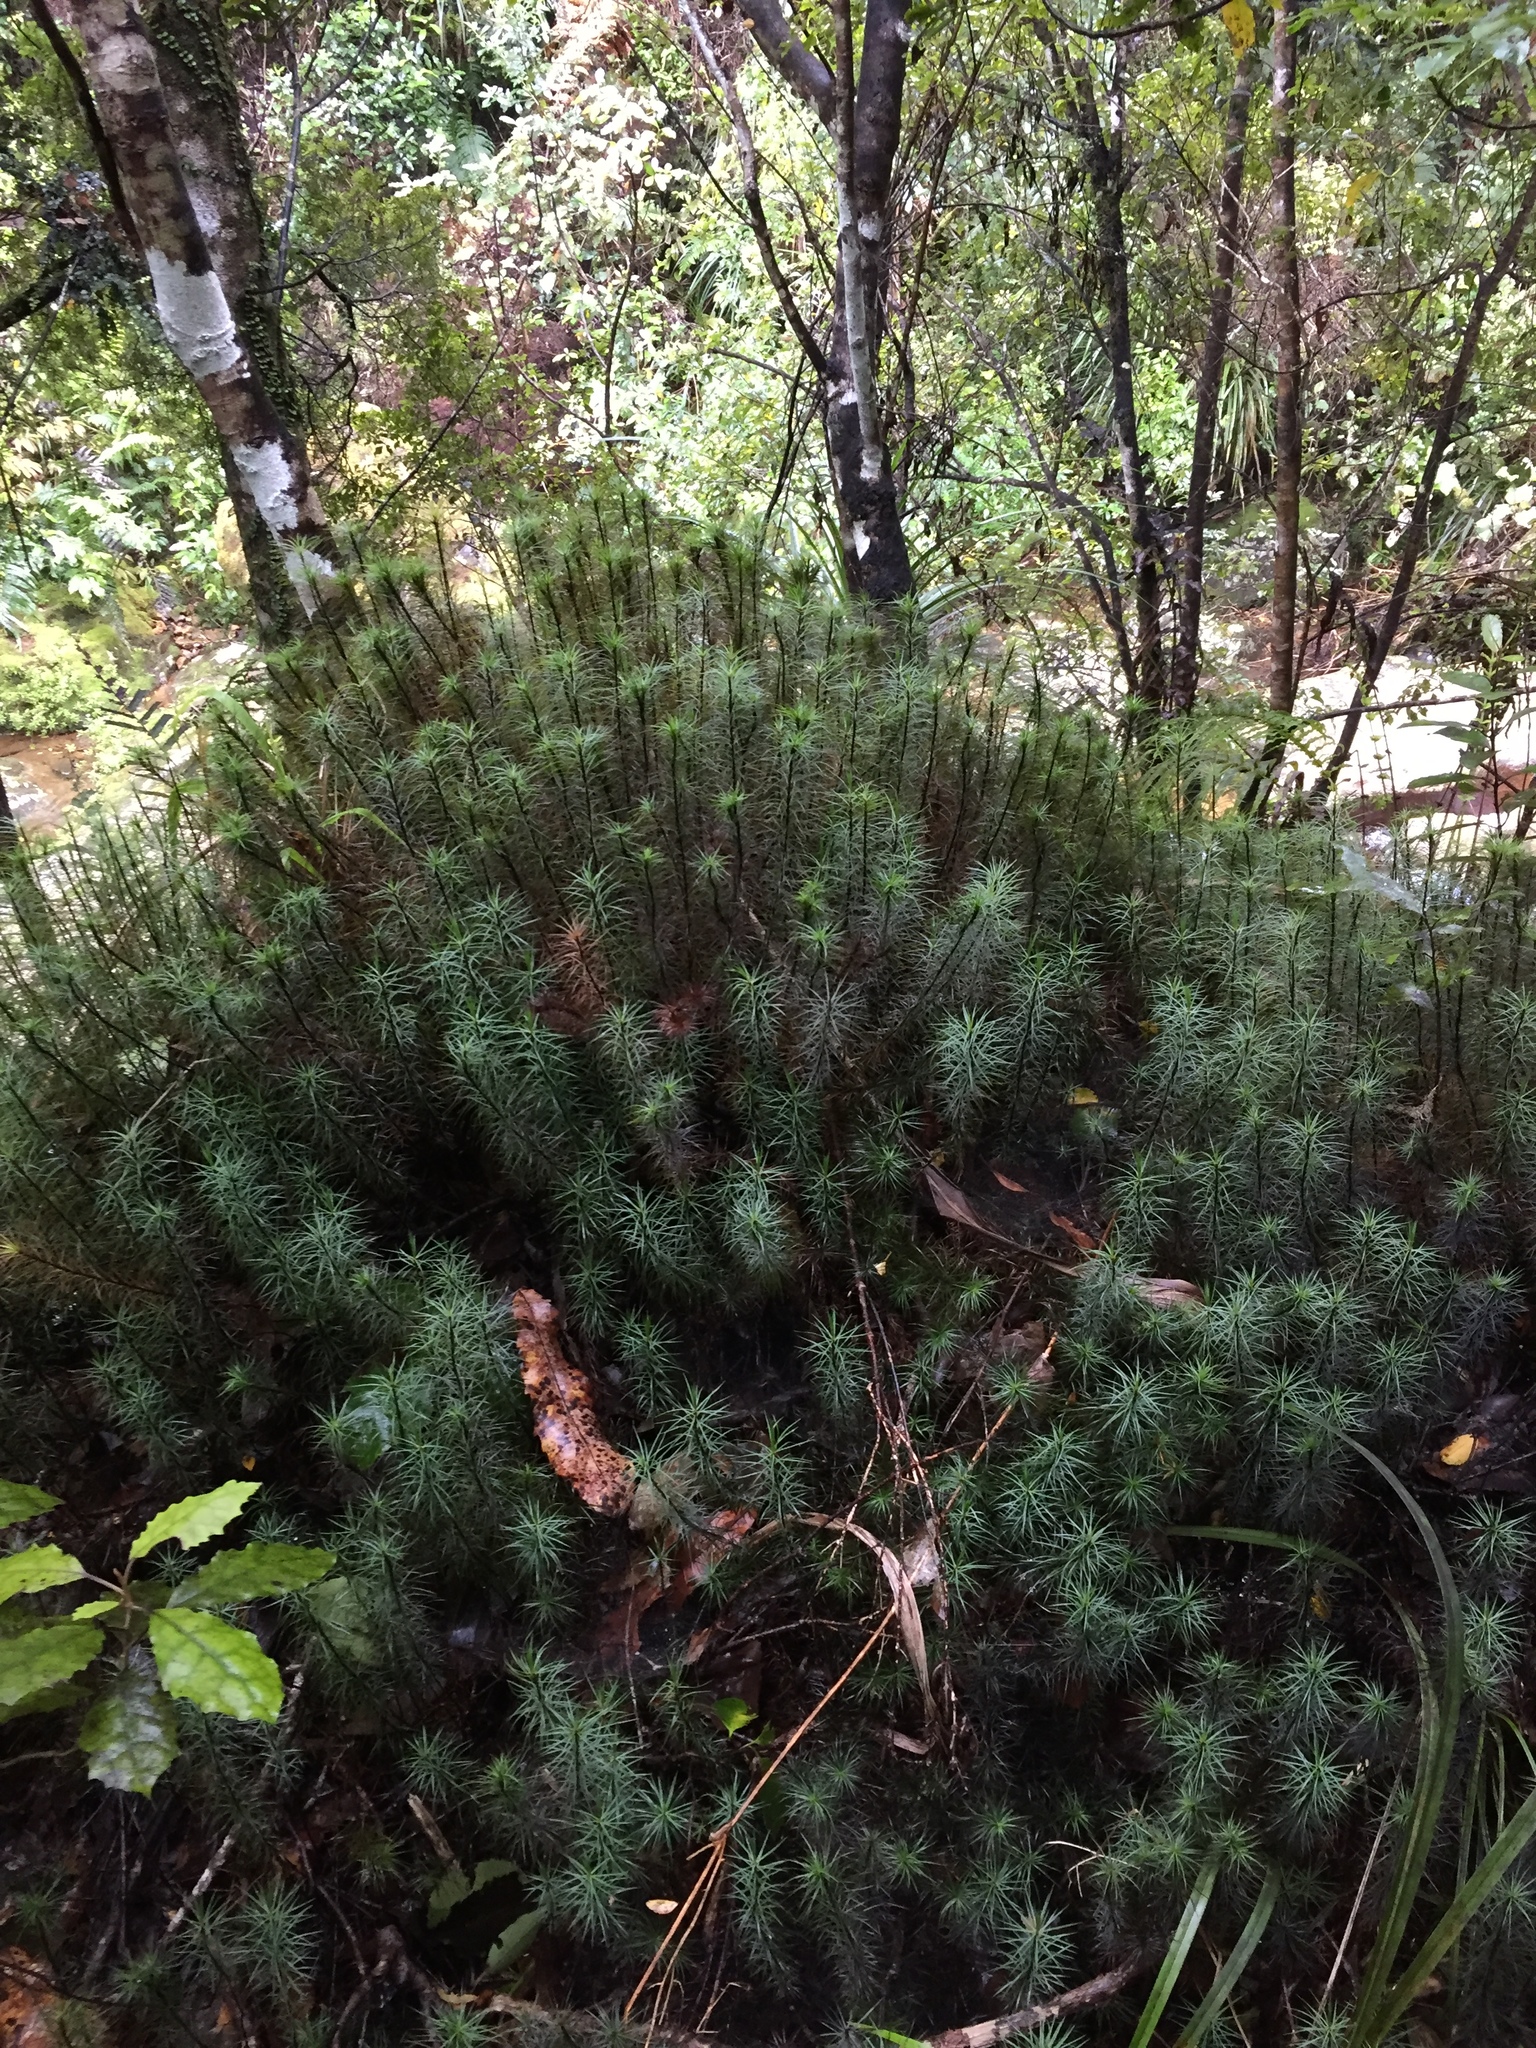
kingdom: Plantae
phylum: Bryophyta
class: Polytrichopsida
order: Polytrichales
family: Polytrichaceae
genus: Dawsonia
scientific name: Dawsonia superba
